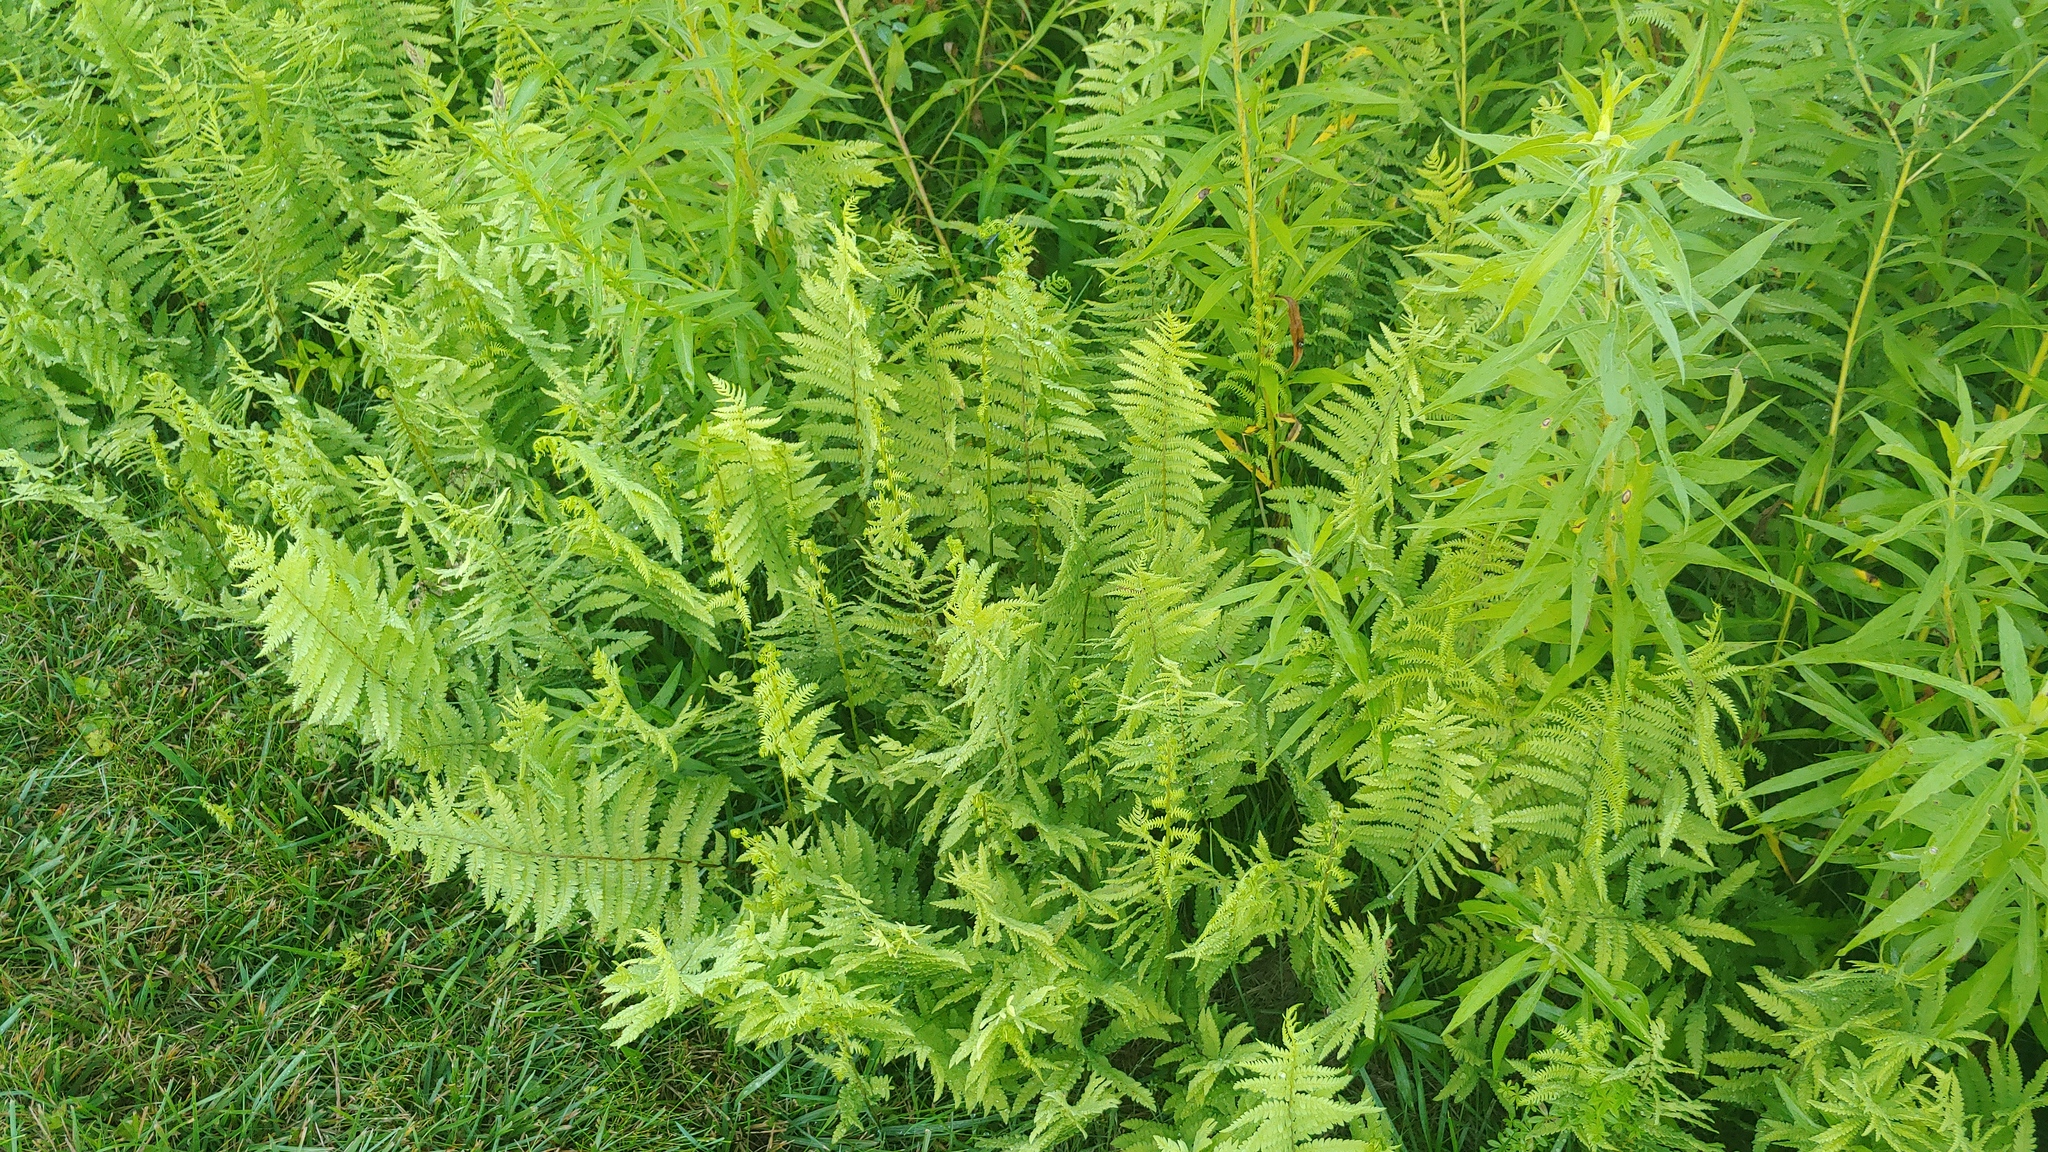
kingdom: Plantae
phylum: Tracheophyta
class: Polypodiopsida
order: Polypodiales
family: Thelypteridaceae
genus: Thelypteris
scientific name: Thelypteris palustris
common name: Marsh fern
